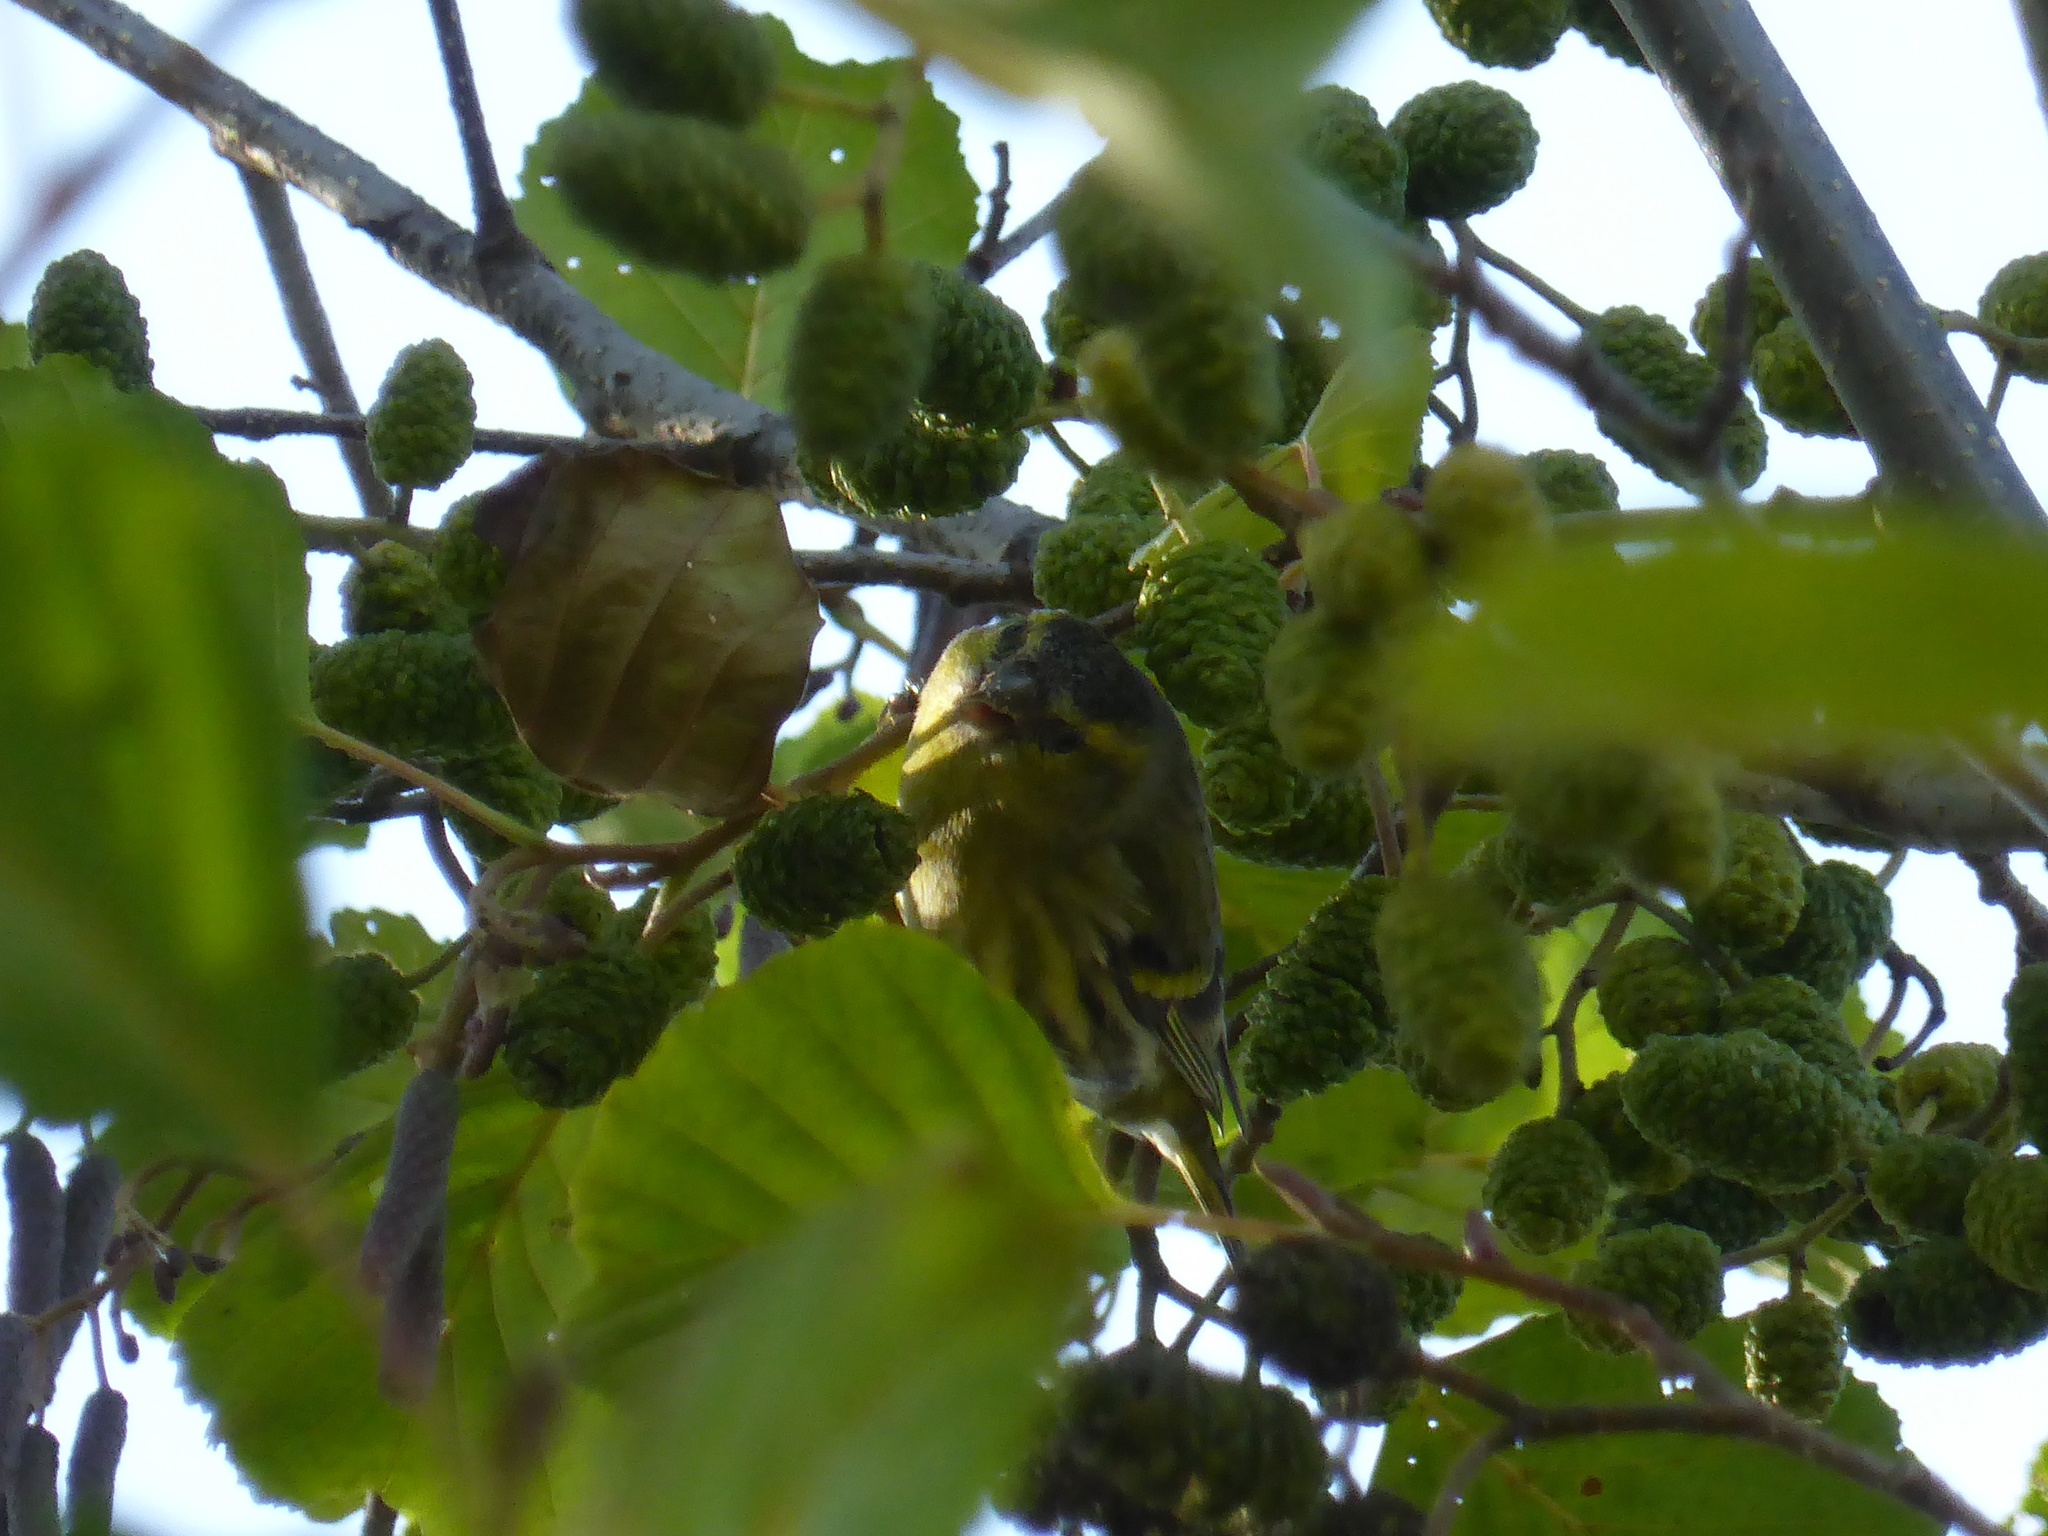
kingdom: Animalia
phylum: Chordata
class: Aves
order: Passeriformes
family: Fringillidae
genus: Spinus
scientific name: Spinus spinus
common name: Eurasian siskin
